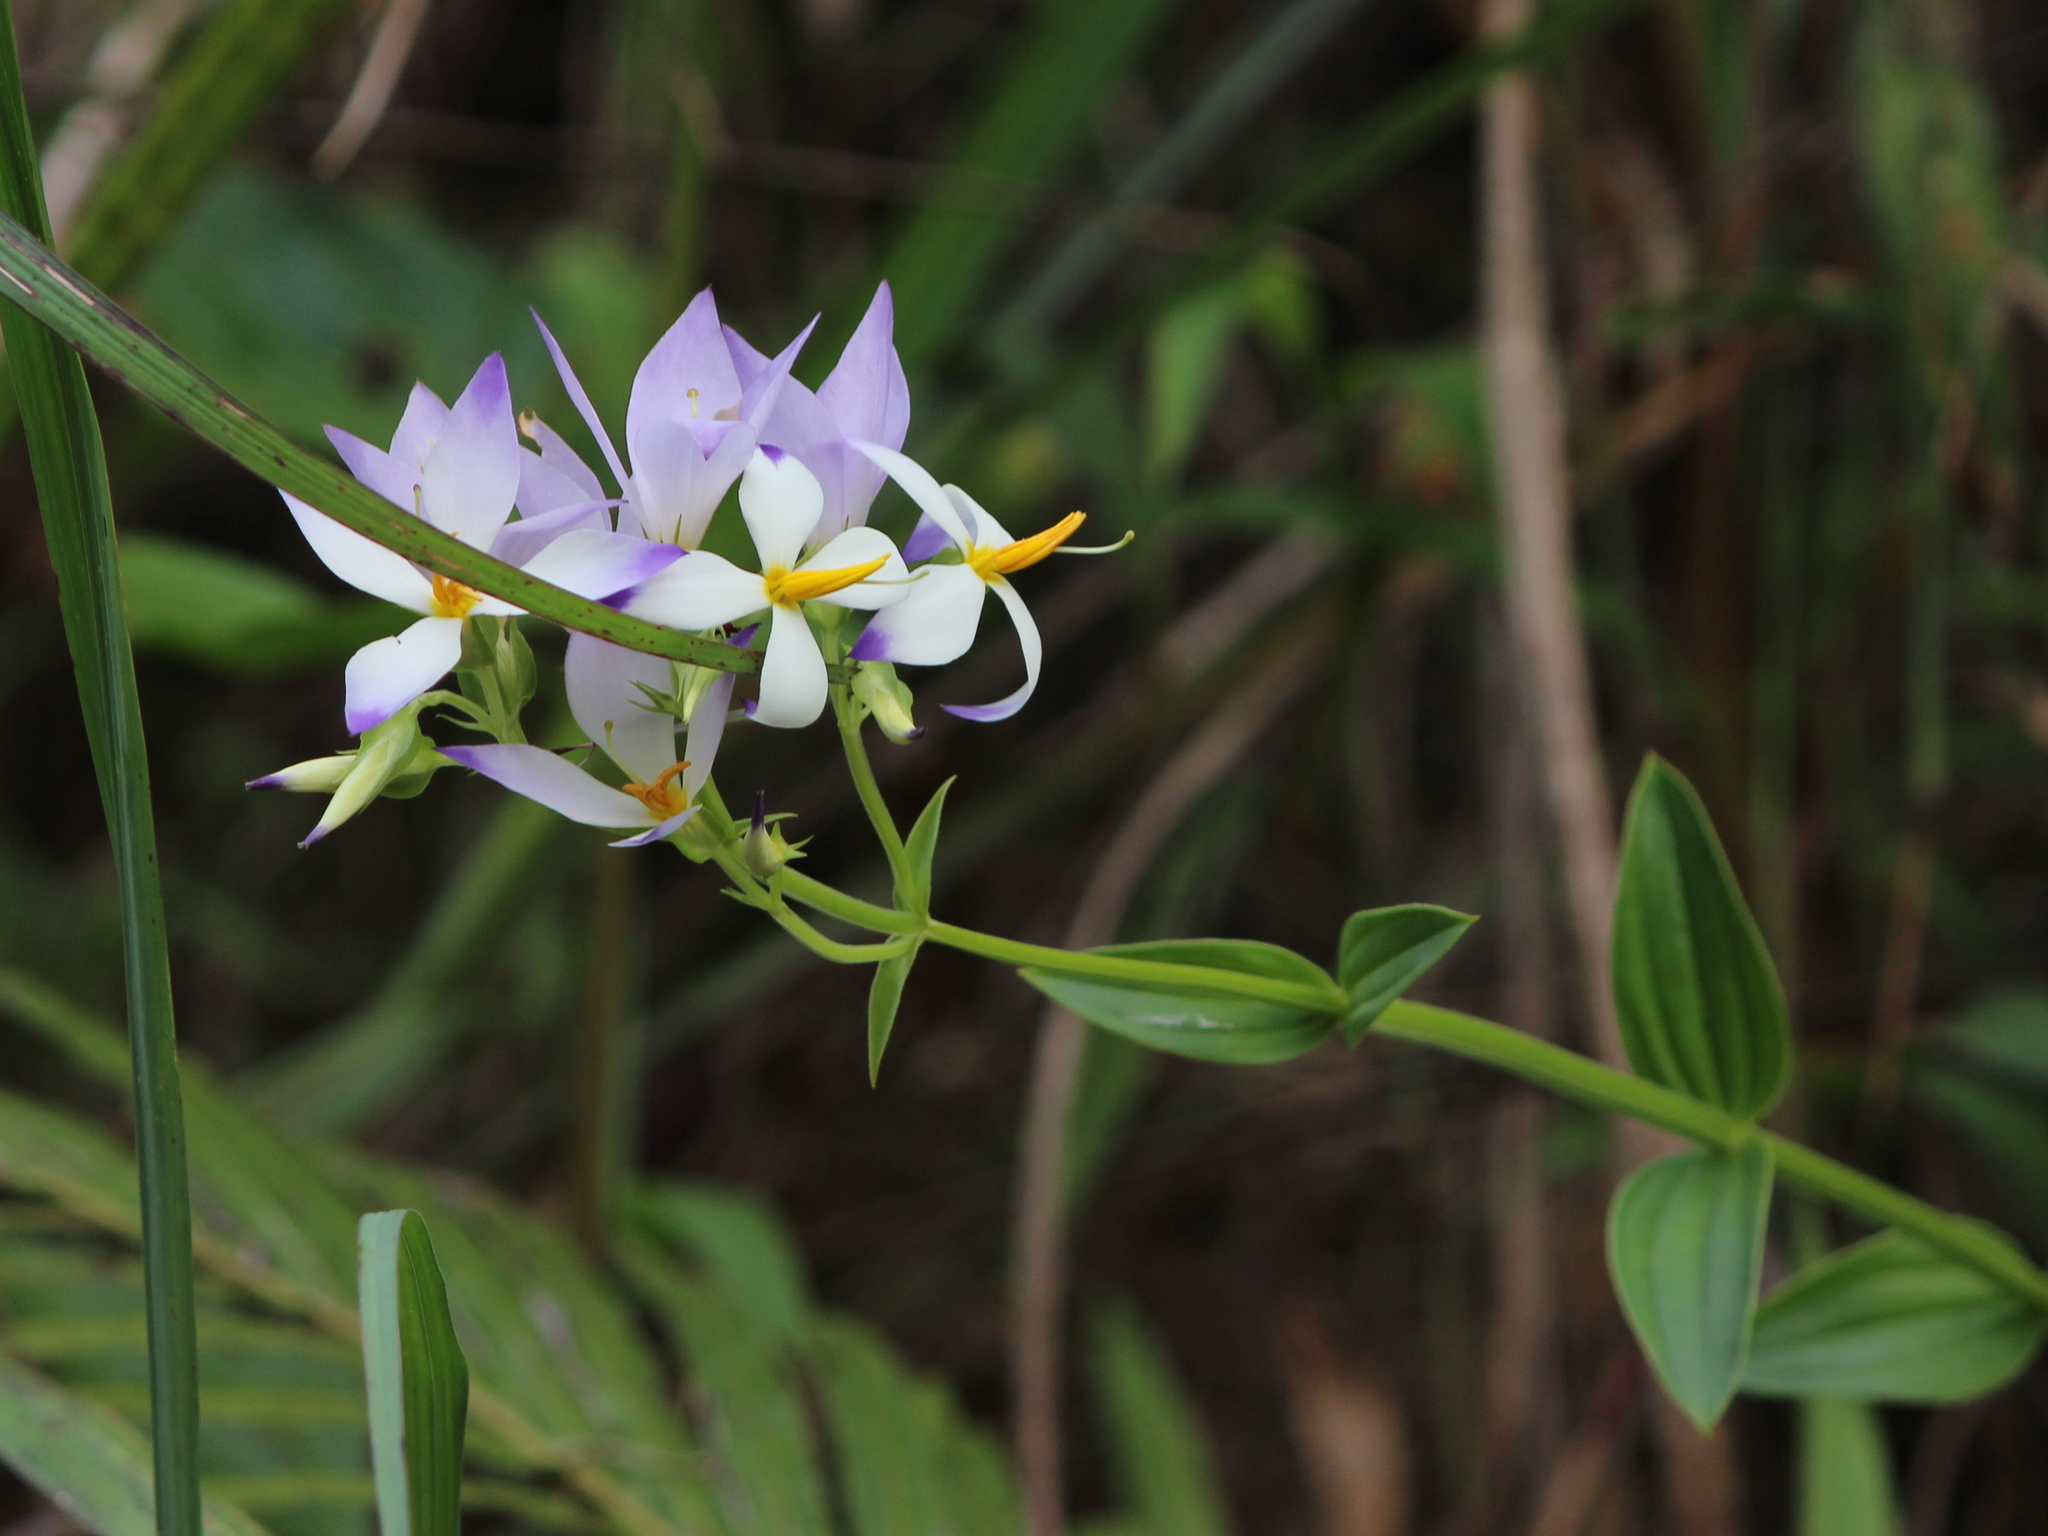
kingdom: Plantae
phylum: Tracheophyta
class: Magnoliopsida
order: Gentianales
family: Gentianaceae
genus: Exacum
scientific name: Exacum tetragonum
